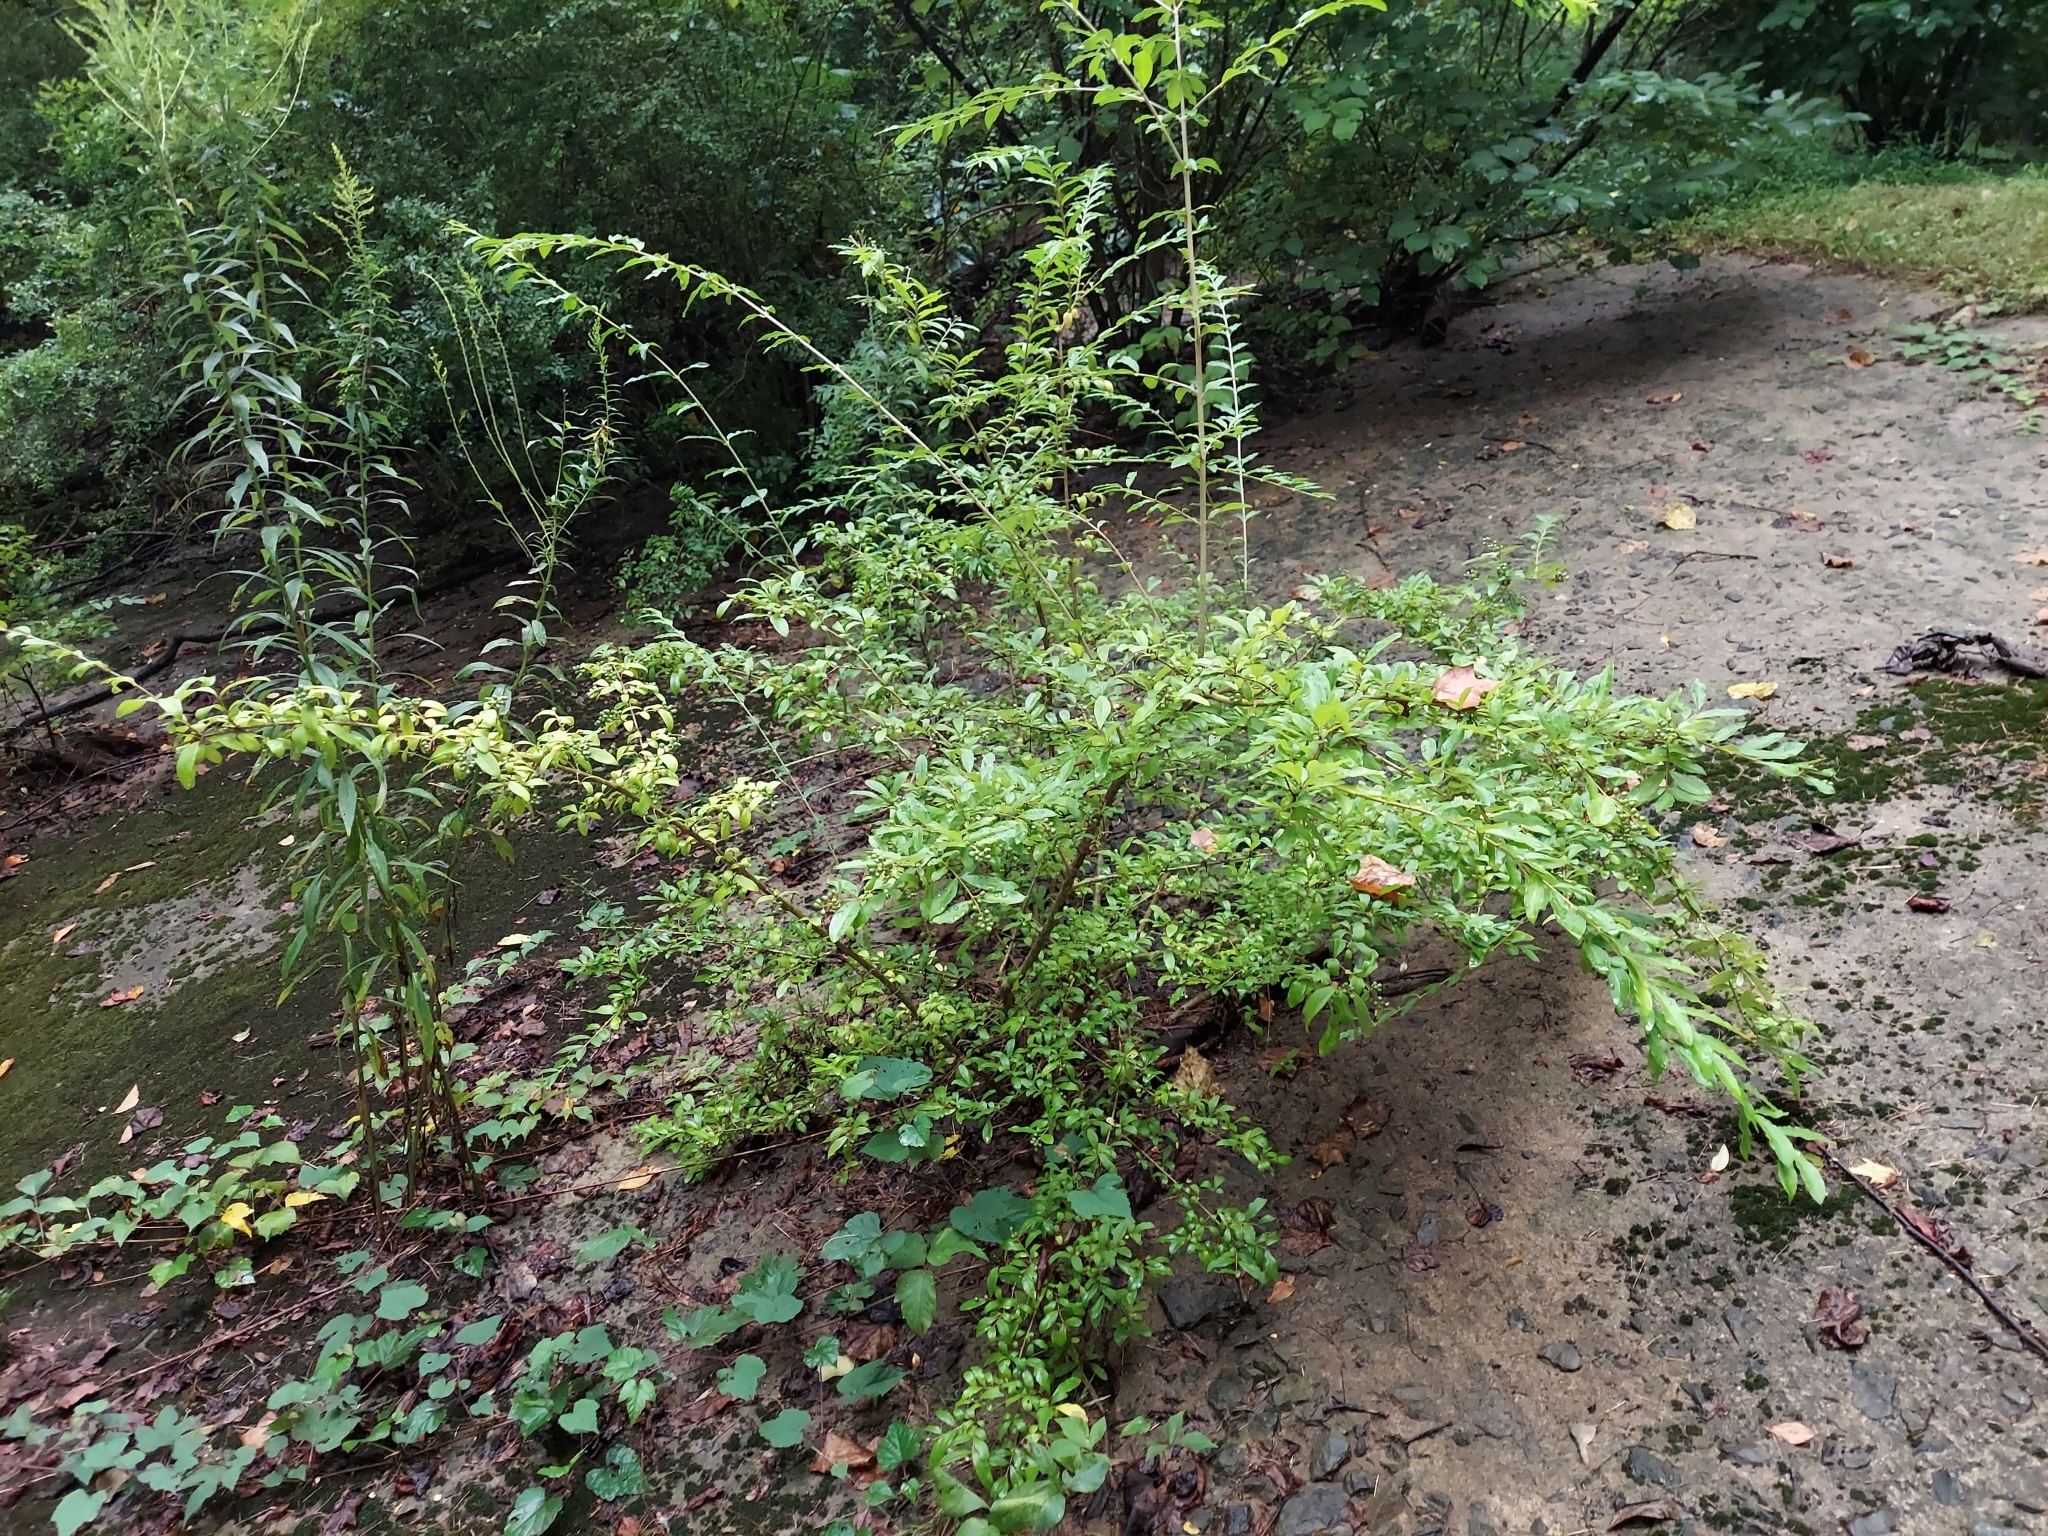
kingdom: Plantae
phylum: Tracheophyta
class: Magnoliopsida
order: Lamiales
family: Oleaceae
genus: Ligustrum
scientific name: Ligustrum obtusifolium
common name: Border privet
